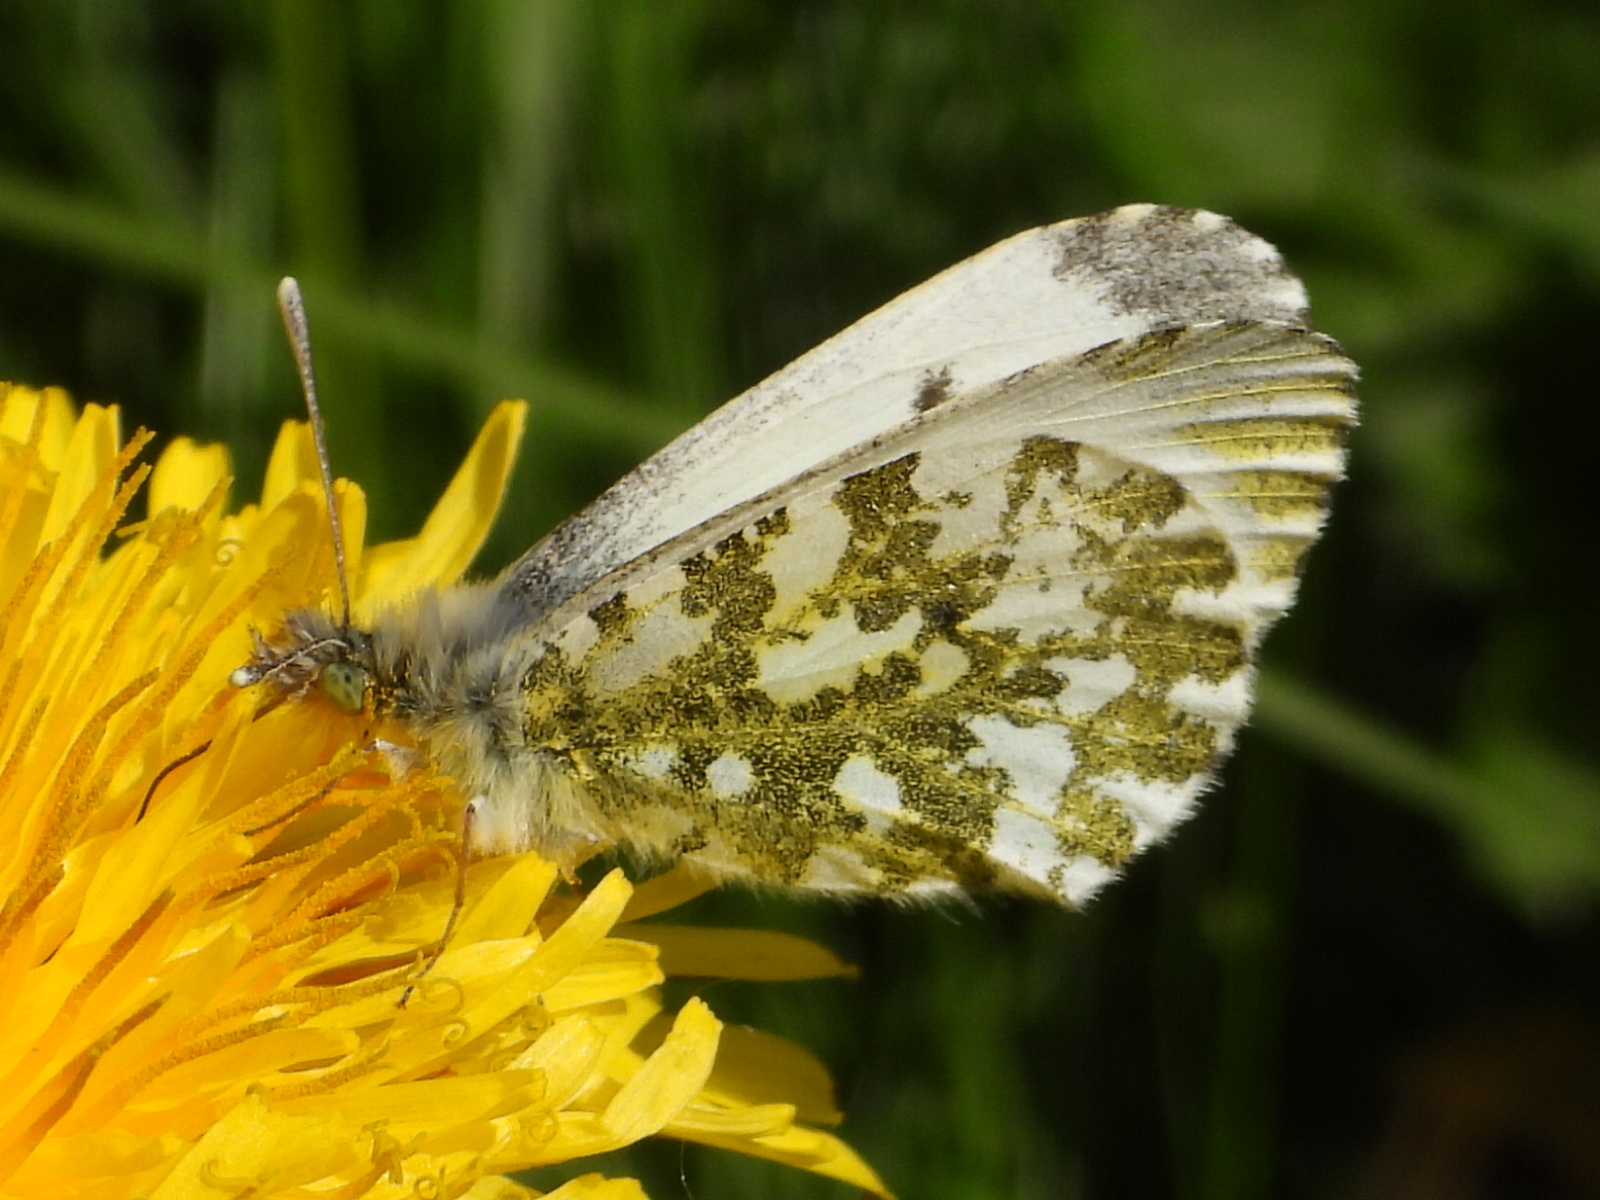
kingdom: Animalia
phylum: Arthropoda
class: Insecta
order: Lepidoptera
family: Pieridae
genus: Anthocharis
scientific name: Anthocharis cardamines
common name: Orange-tip
